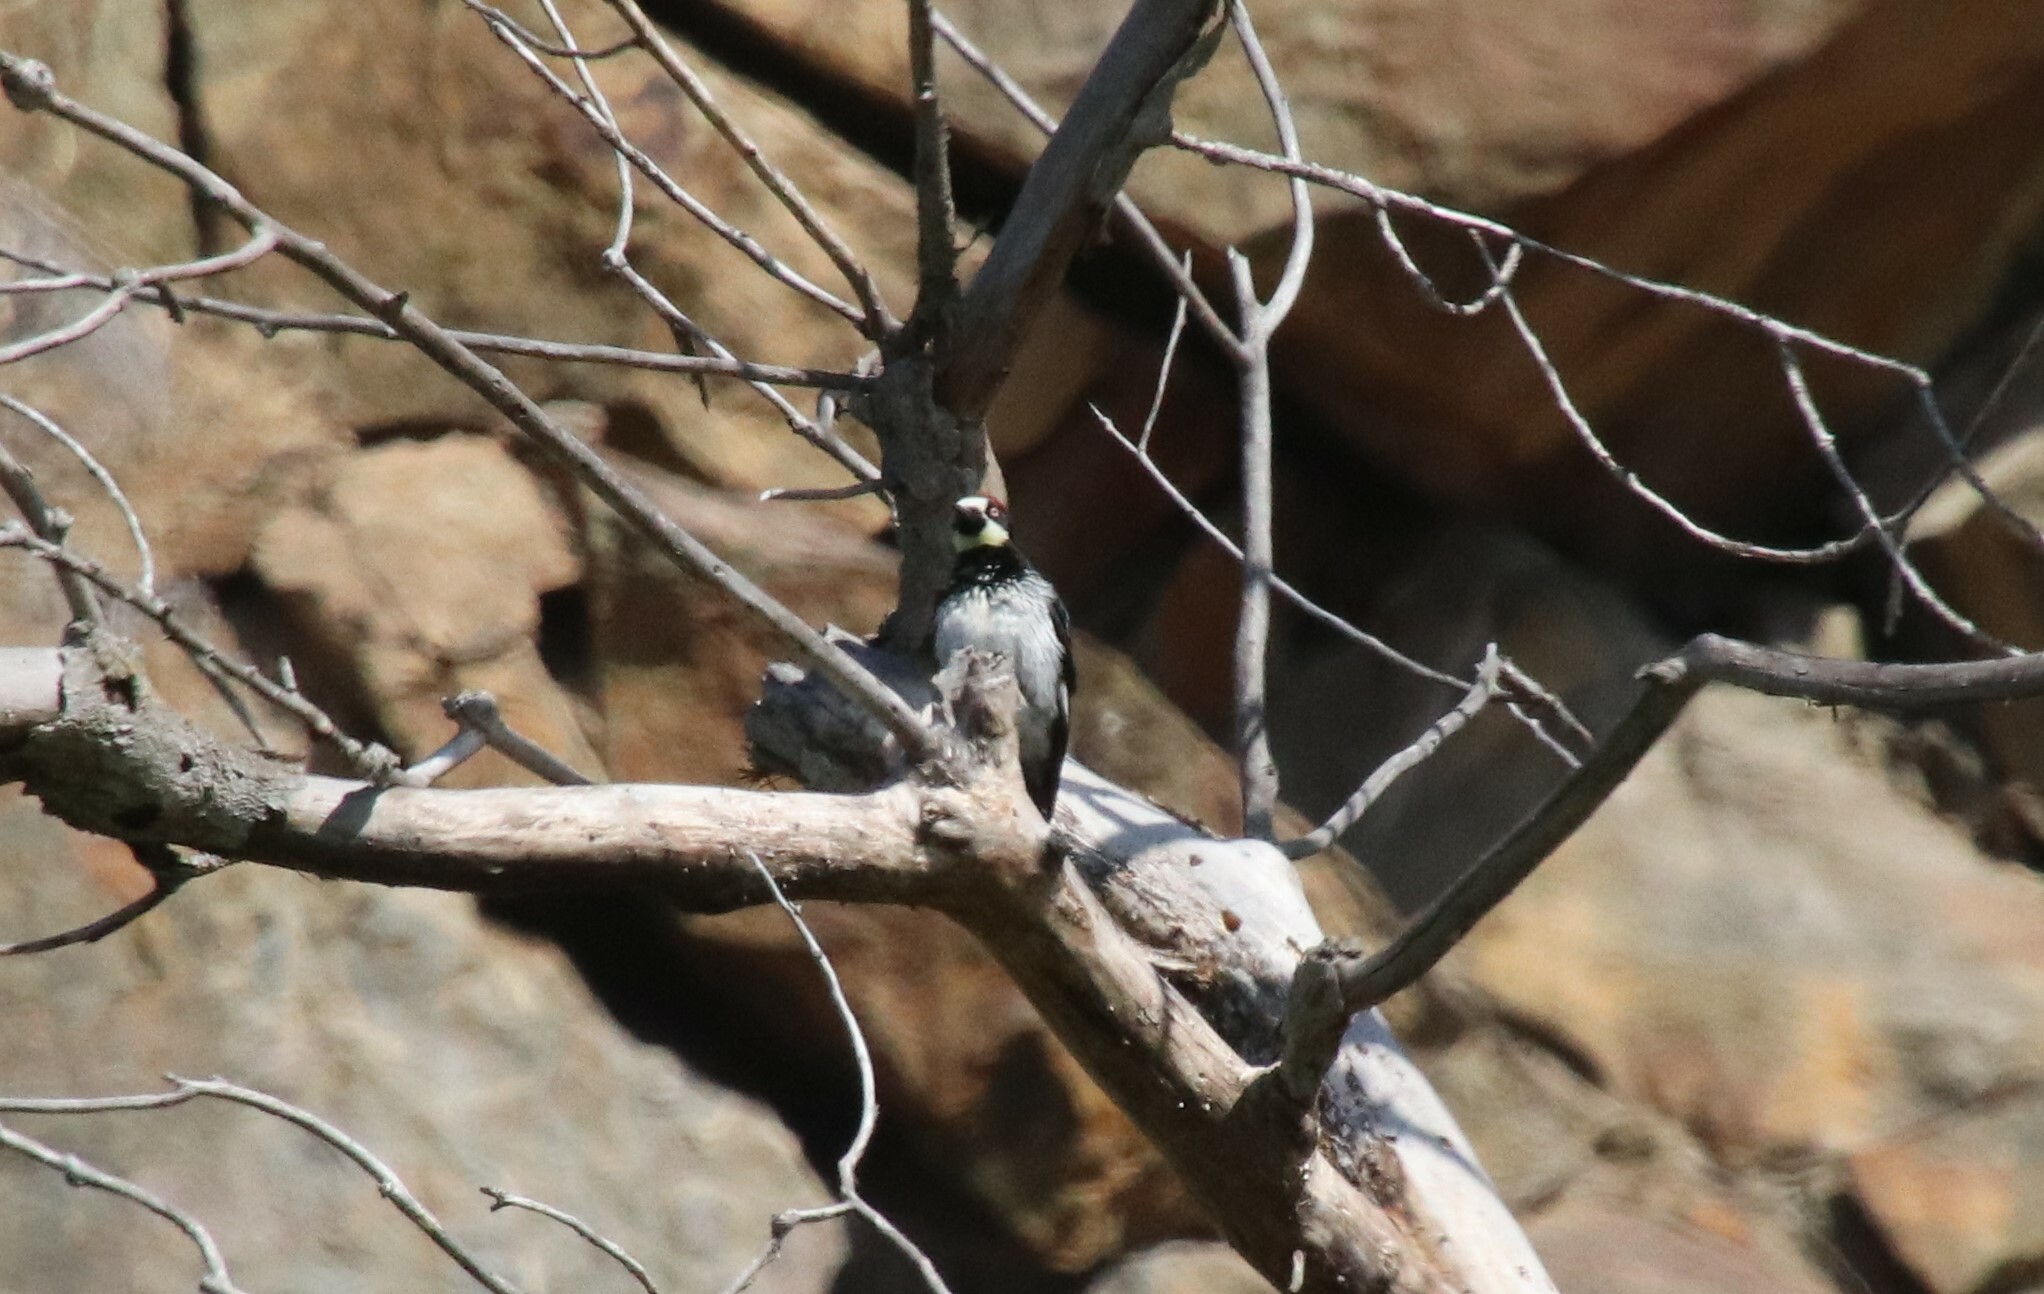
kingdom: Animalia
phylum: Chordata
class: Aves
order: Piciformes
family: Picidae
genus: Melanerpes
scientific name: Melanerpes formicivorus
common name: Acorn woodpecker
